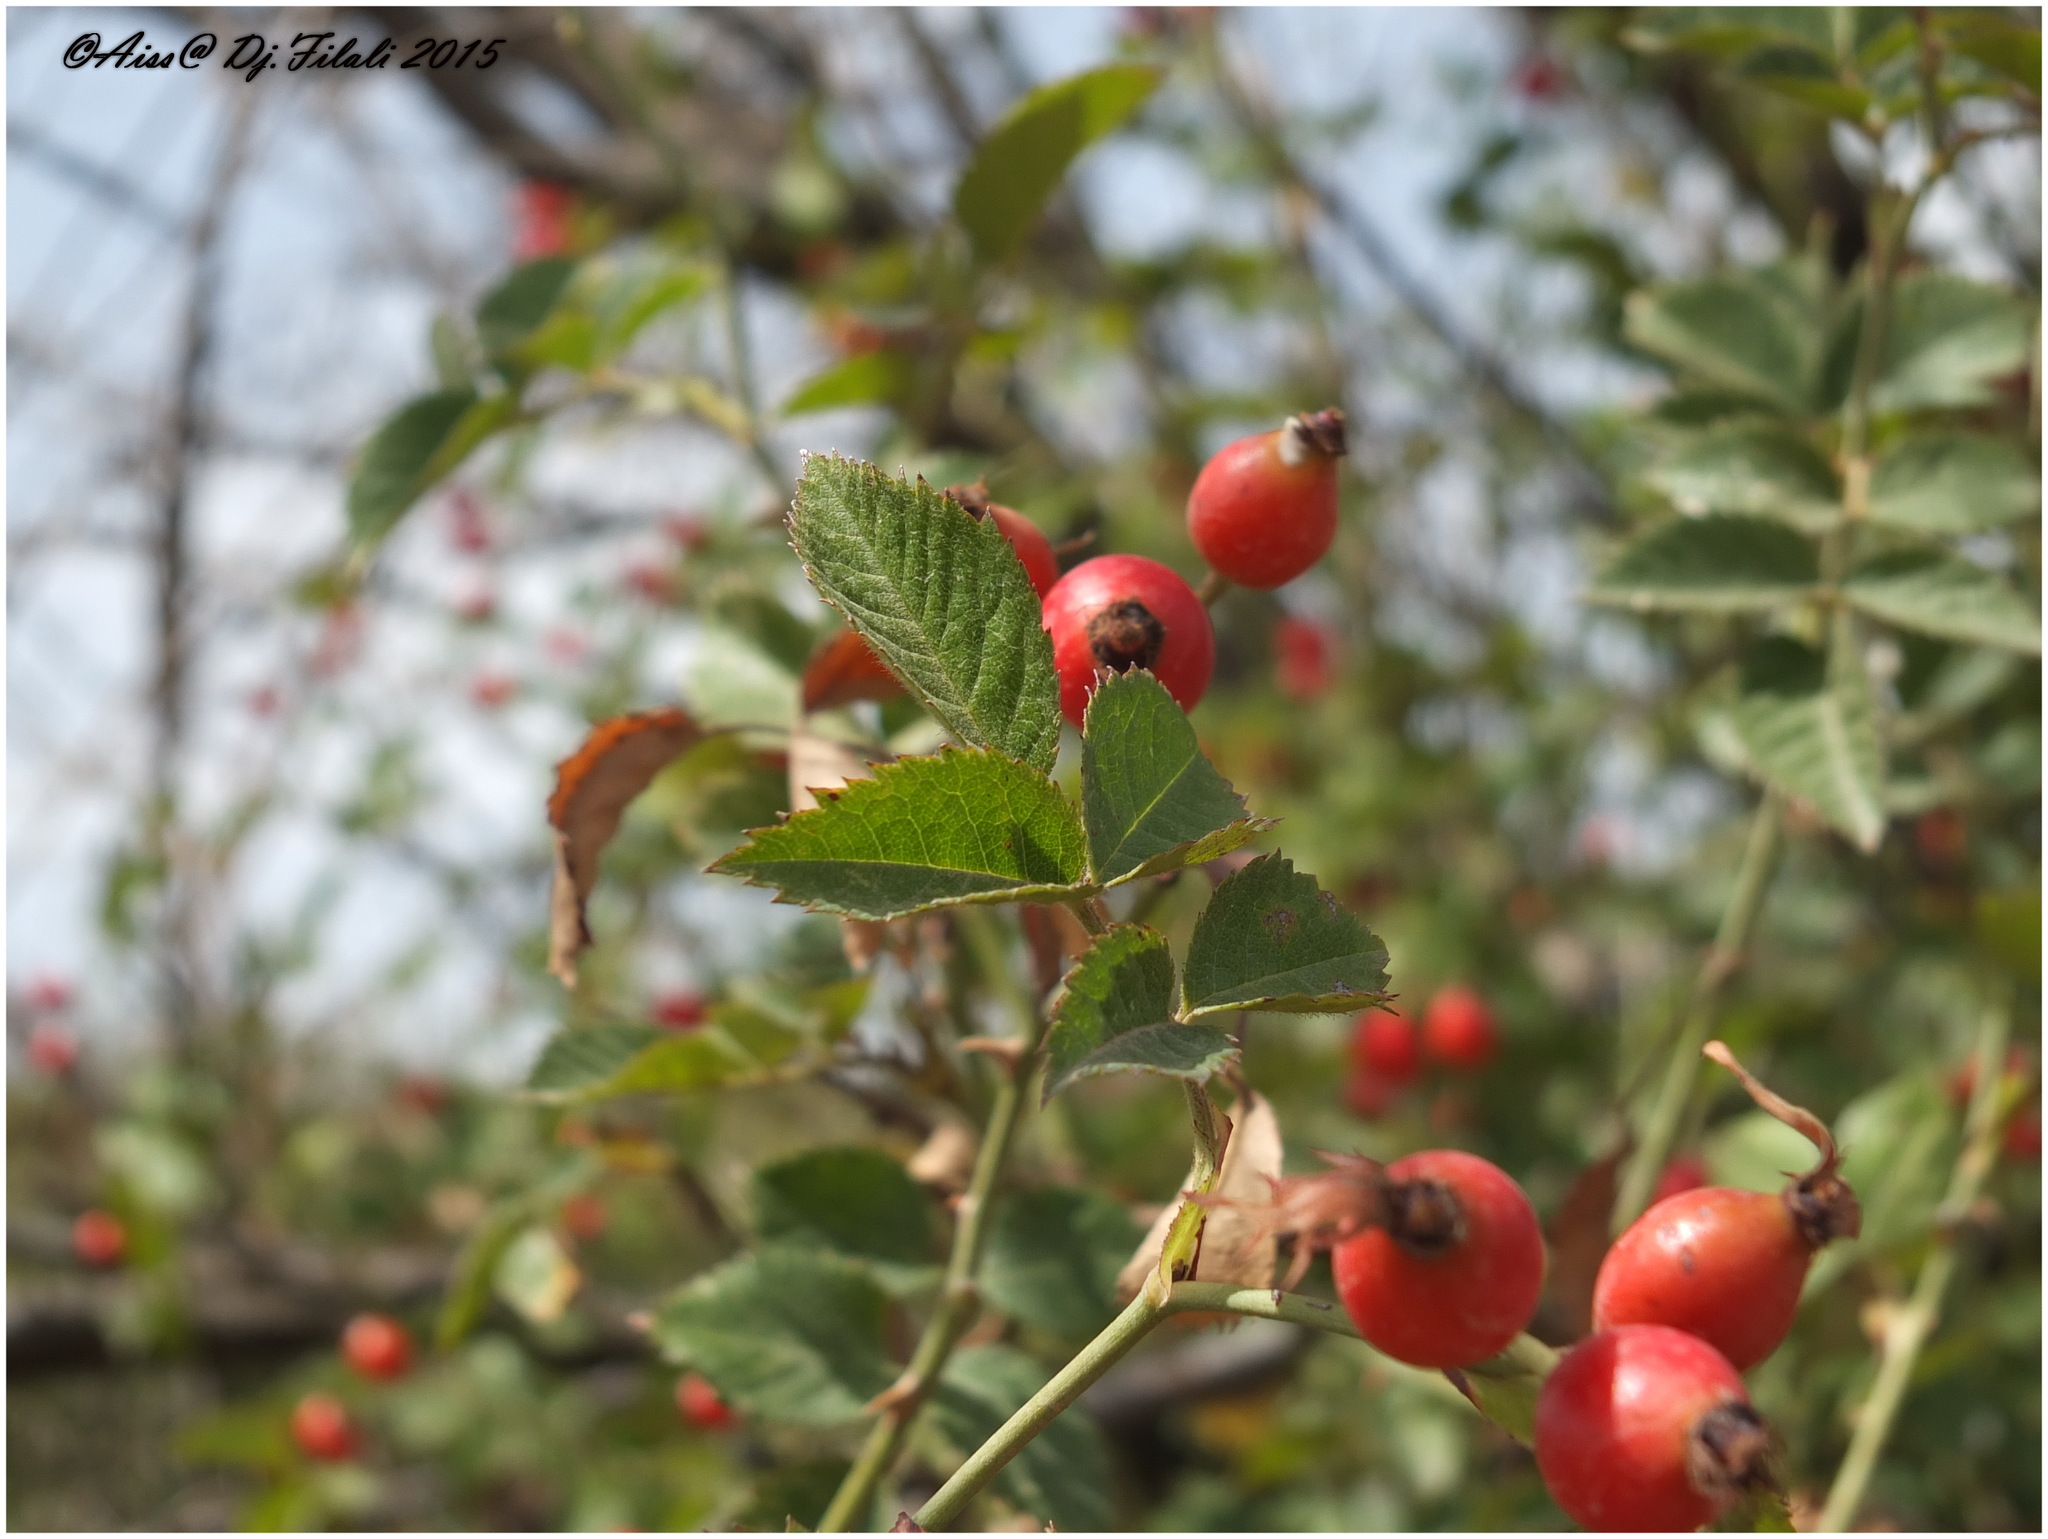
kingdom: Plantae
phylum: Tracheophyta
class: Magnoliopsida
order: Rosales
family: Rosaceae
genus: Rosa
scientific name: Rosa corymbifera
